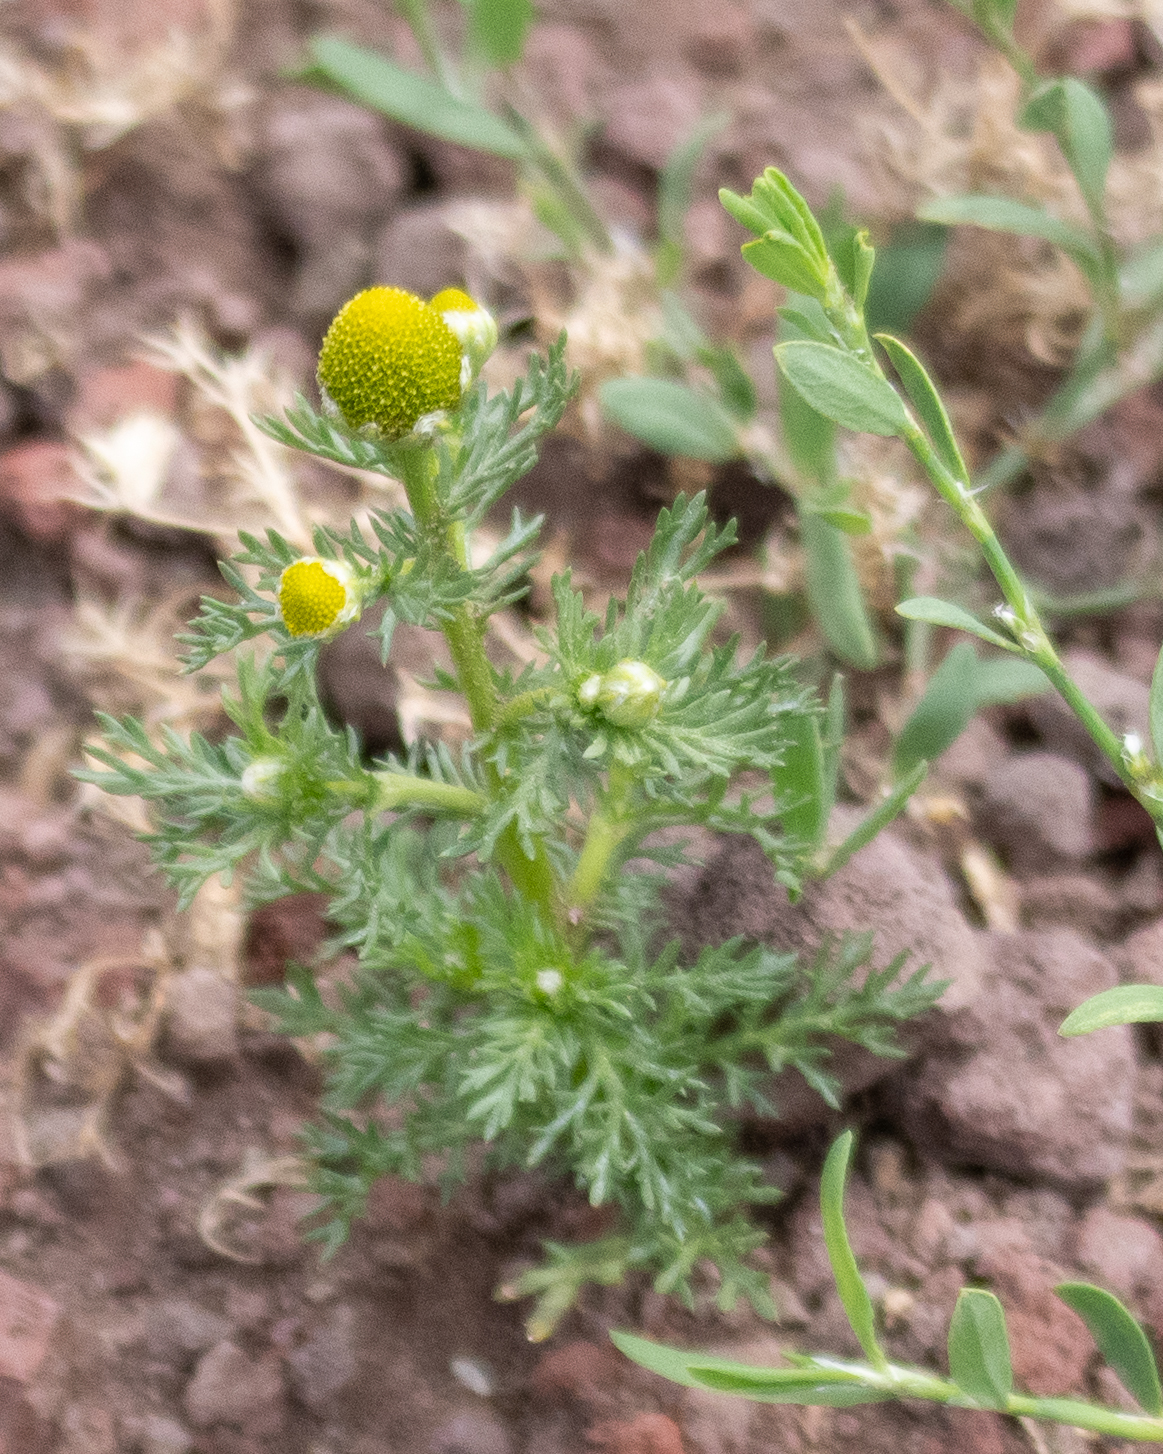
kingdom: Plantae
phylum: Tracheophyta
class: Magnoliopsida
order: Asterales
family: Asteraceae
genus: Matricaria
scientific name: Matricaria discoidea
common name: Disc mayweed
